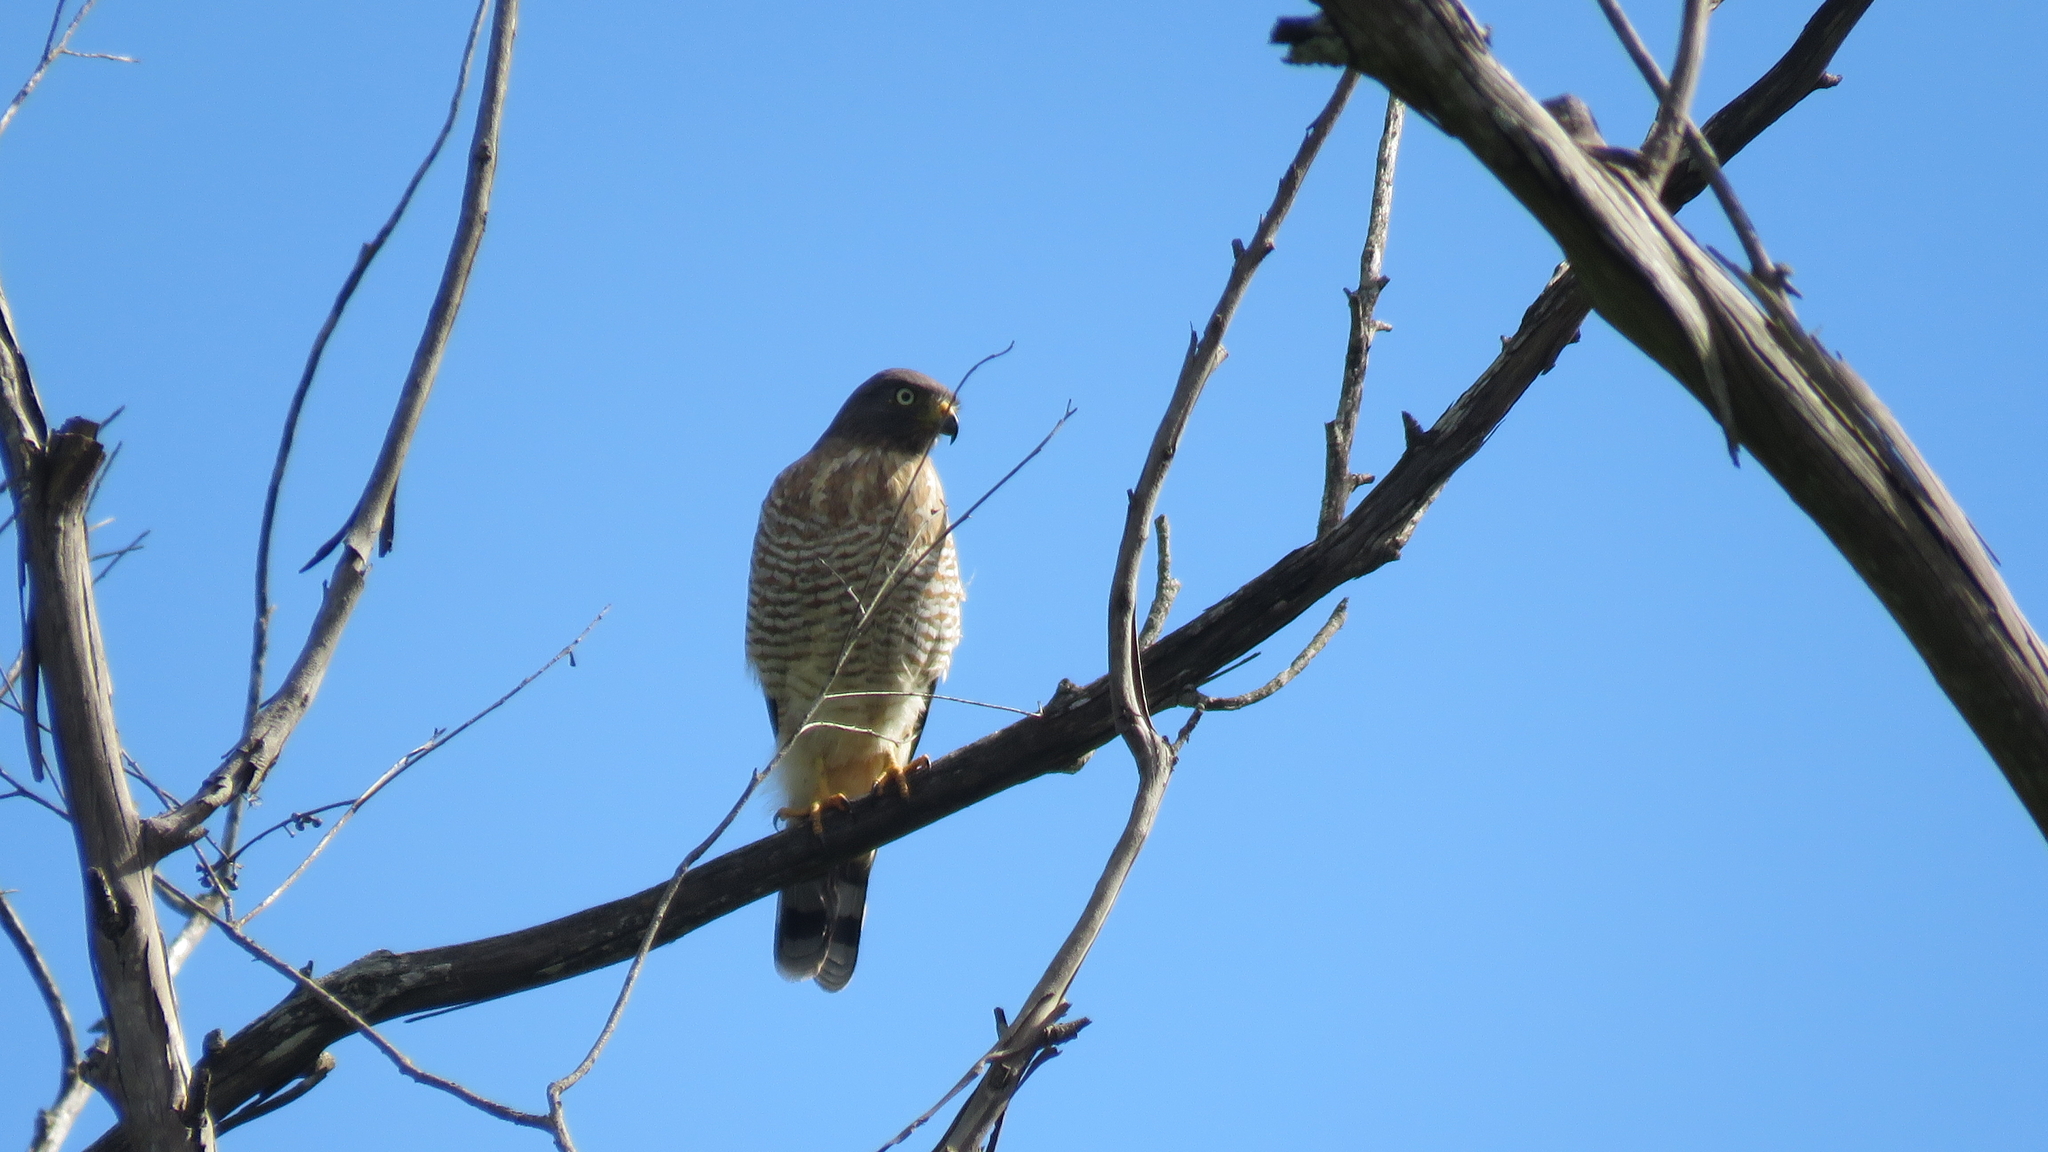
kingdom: Animalia
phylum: Chordata
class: Aves
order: Accipitriformes
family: Accipitridae
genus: Rupornis
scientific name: Rupornis magnirostris
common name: Roadside hawk
